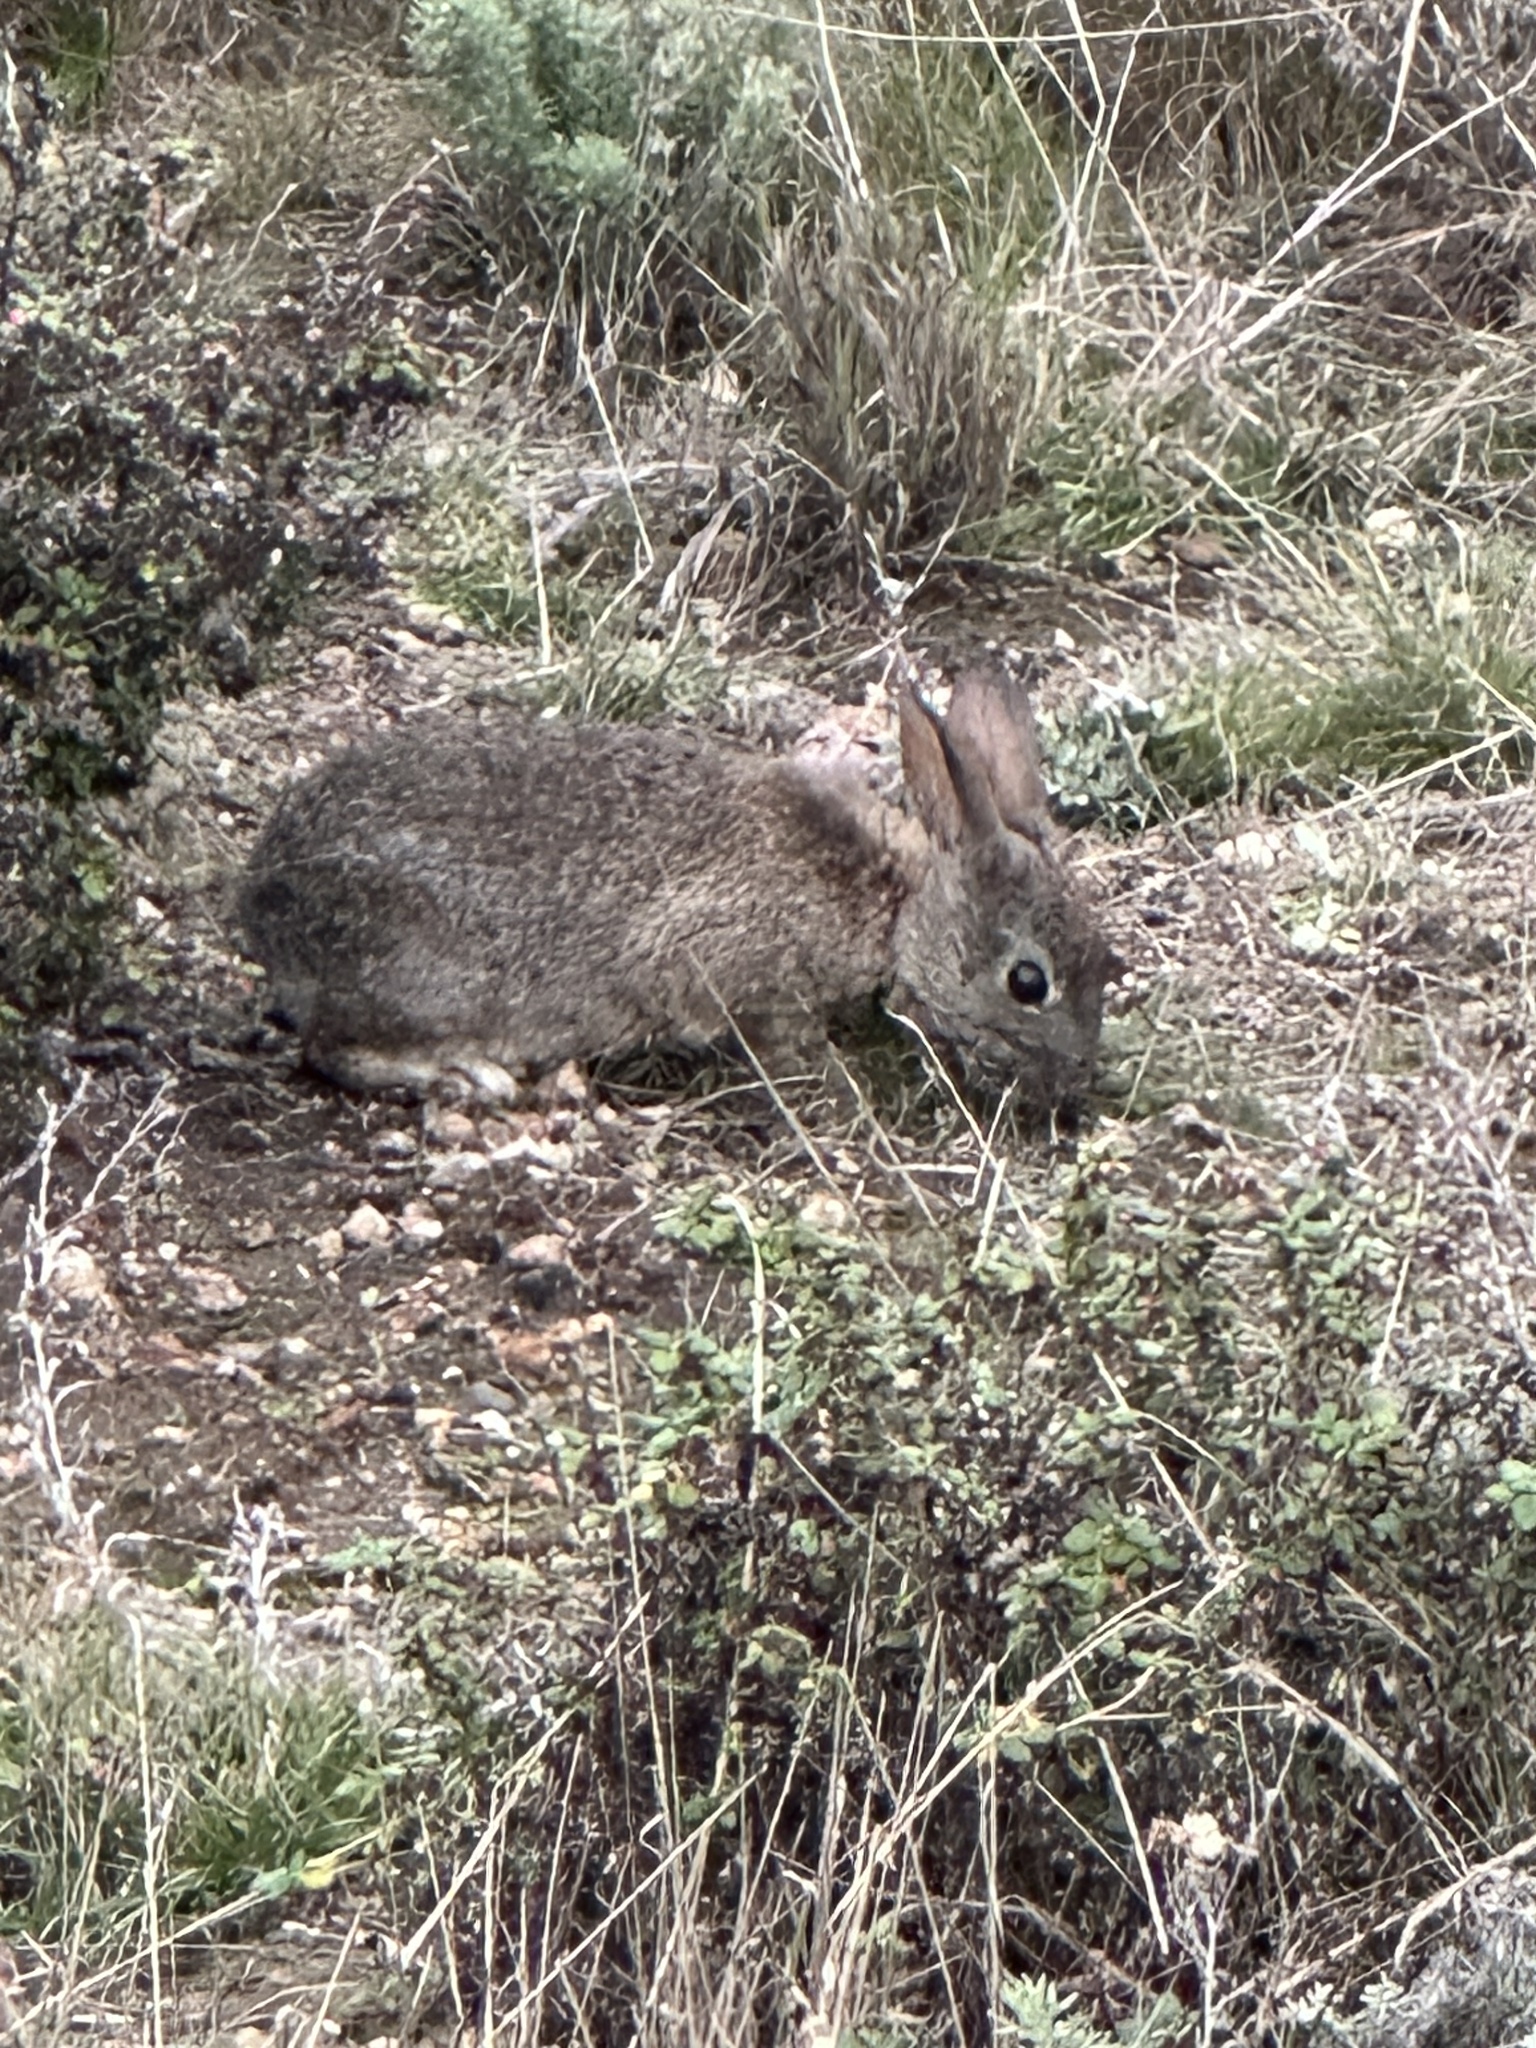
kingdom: Animalia
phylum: Chordata
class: Mammalia
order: Lagomorpha
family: Leporidae
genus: Sylvilagus
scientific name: Sylvilagus bachmani
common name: Brush rabbit
